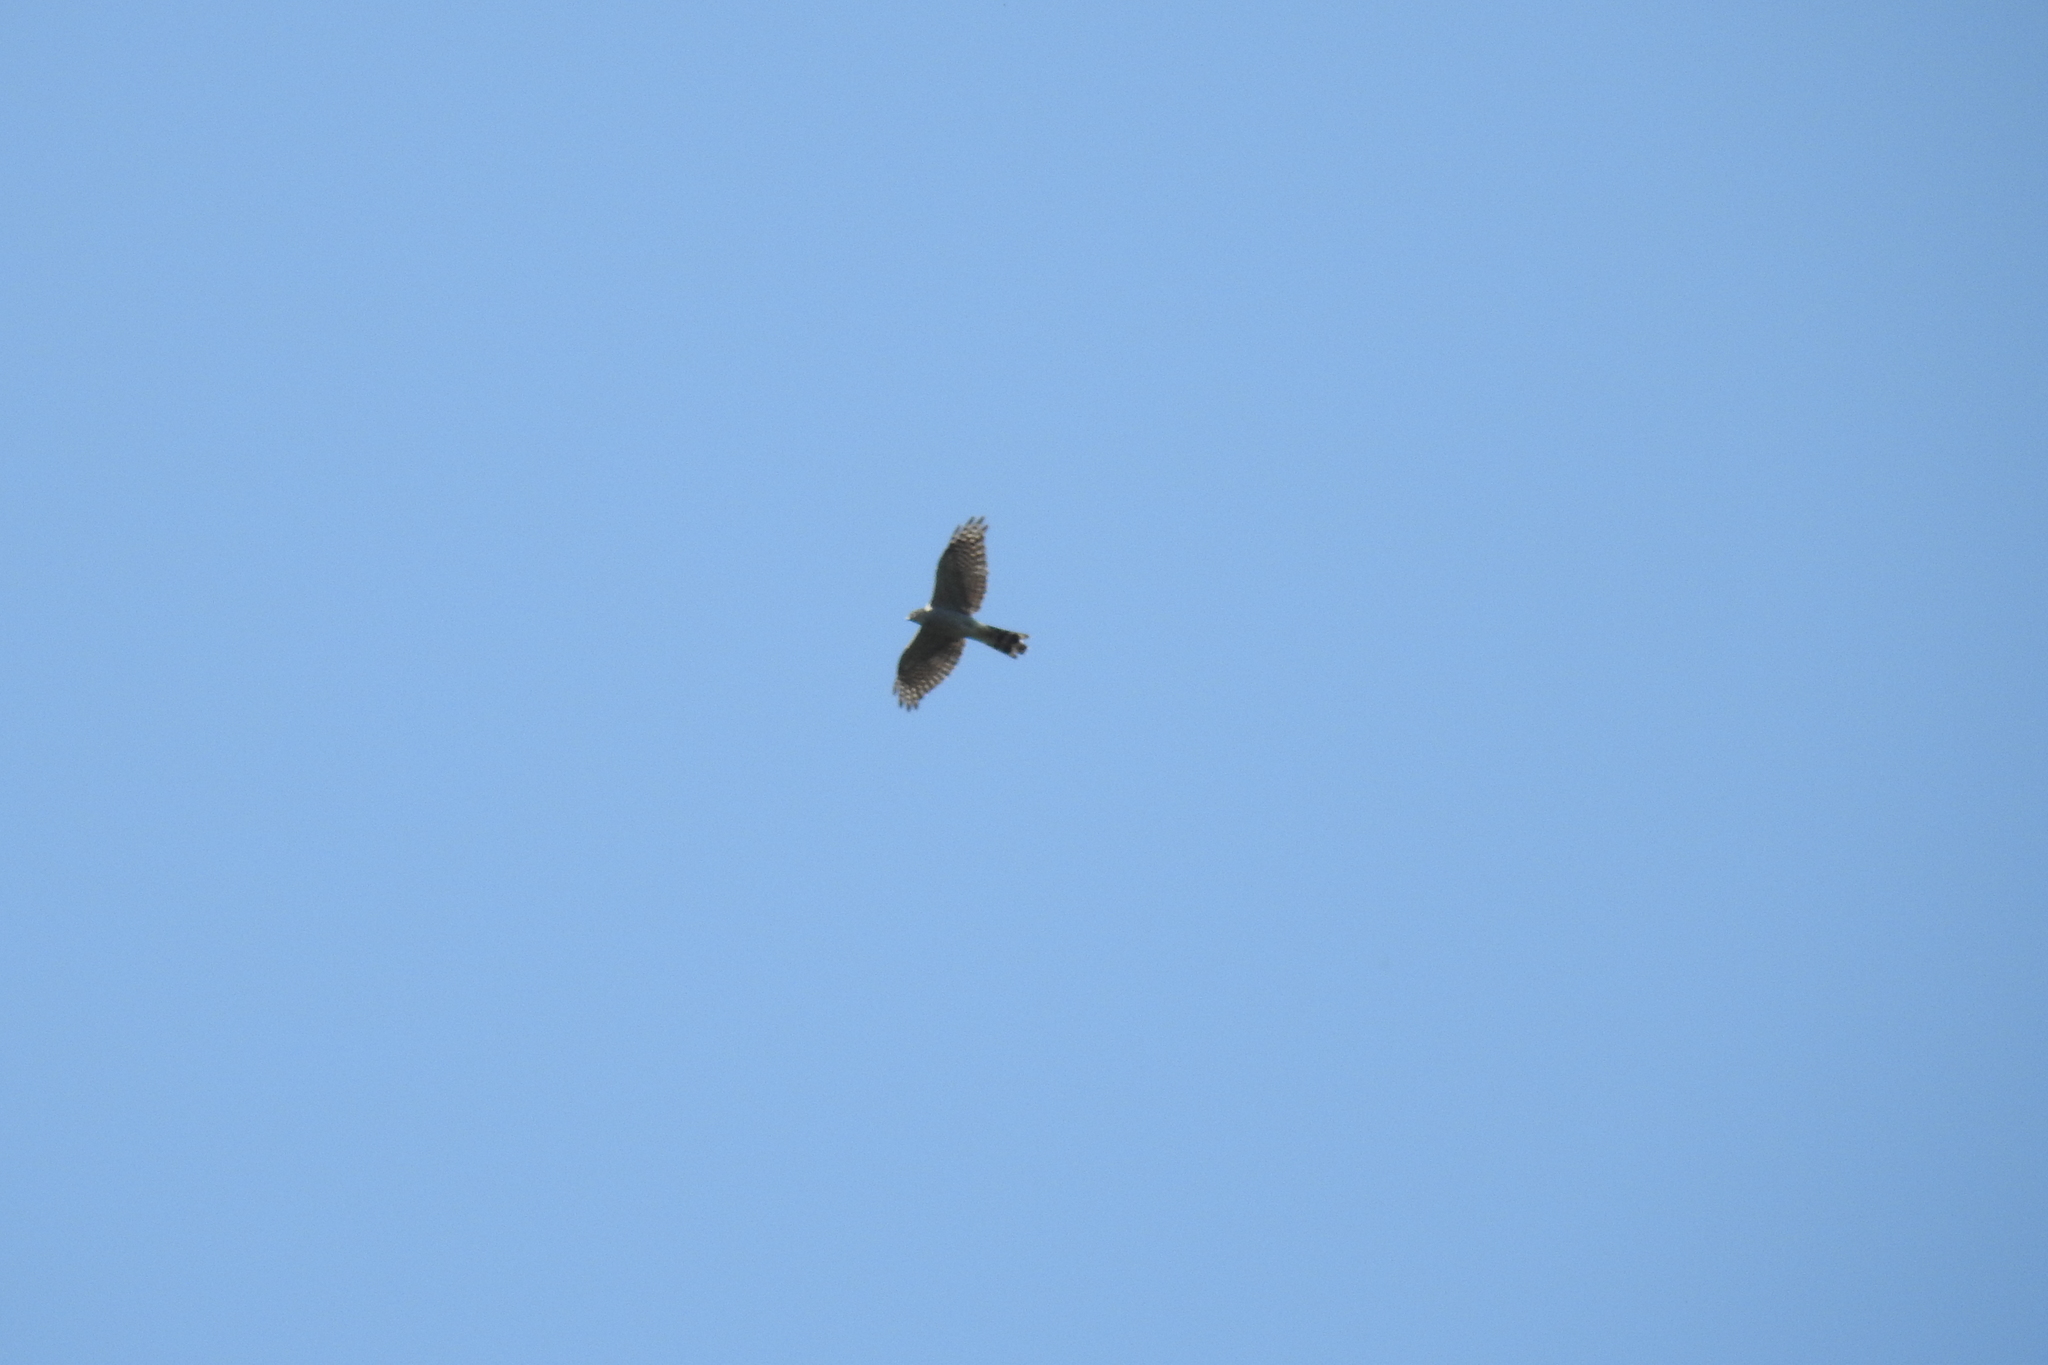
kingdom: Animalia
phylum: Chordata
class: Aves
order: Accipitriformes
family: Accipitridae
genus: Accipiter
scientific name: Accipiter nisus
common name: Eurasian sparrowhawk
